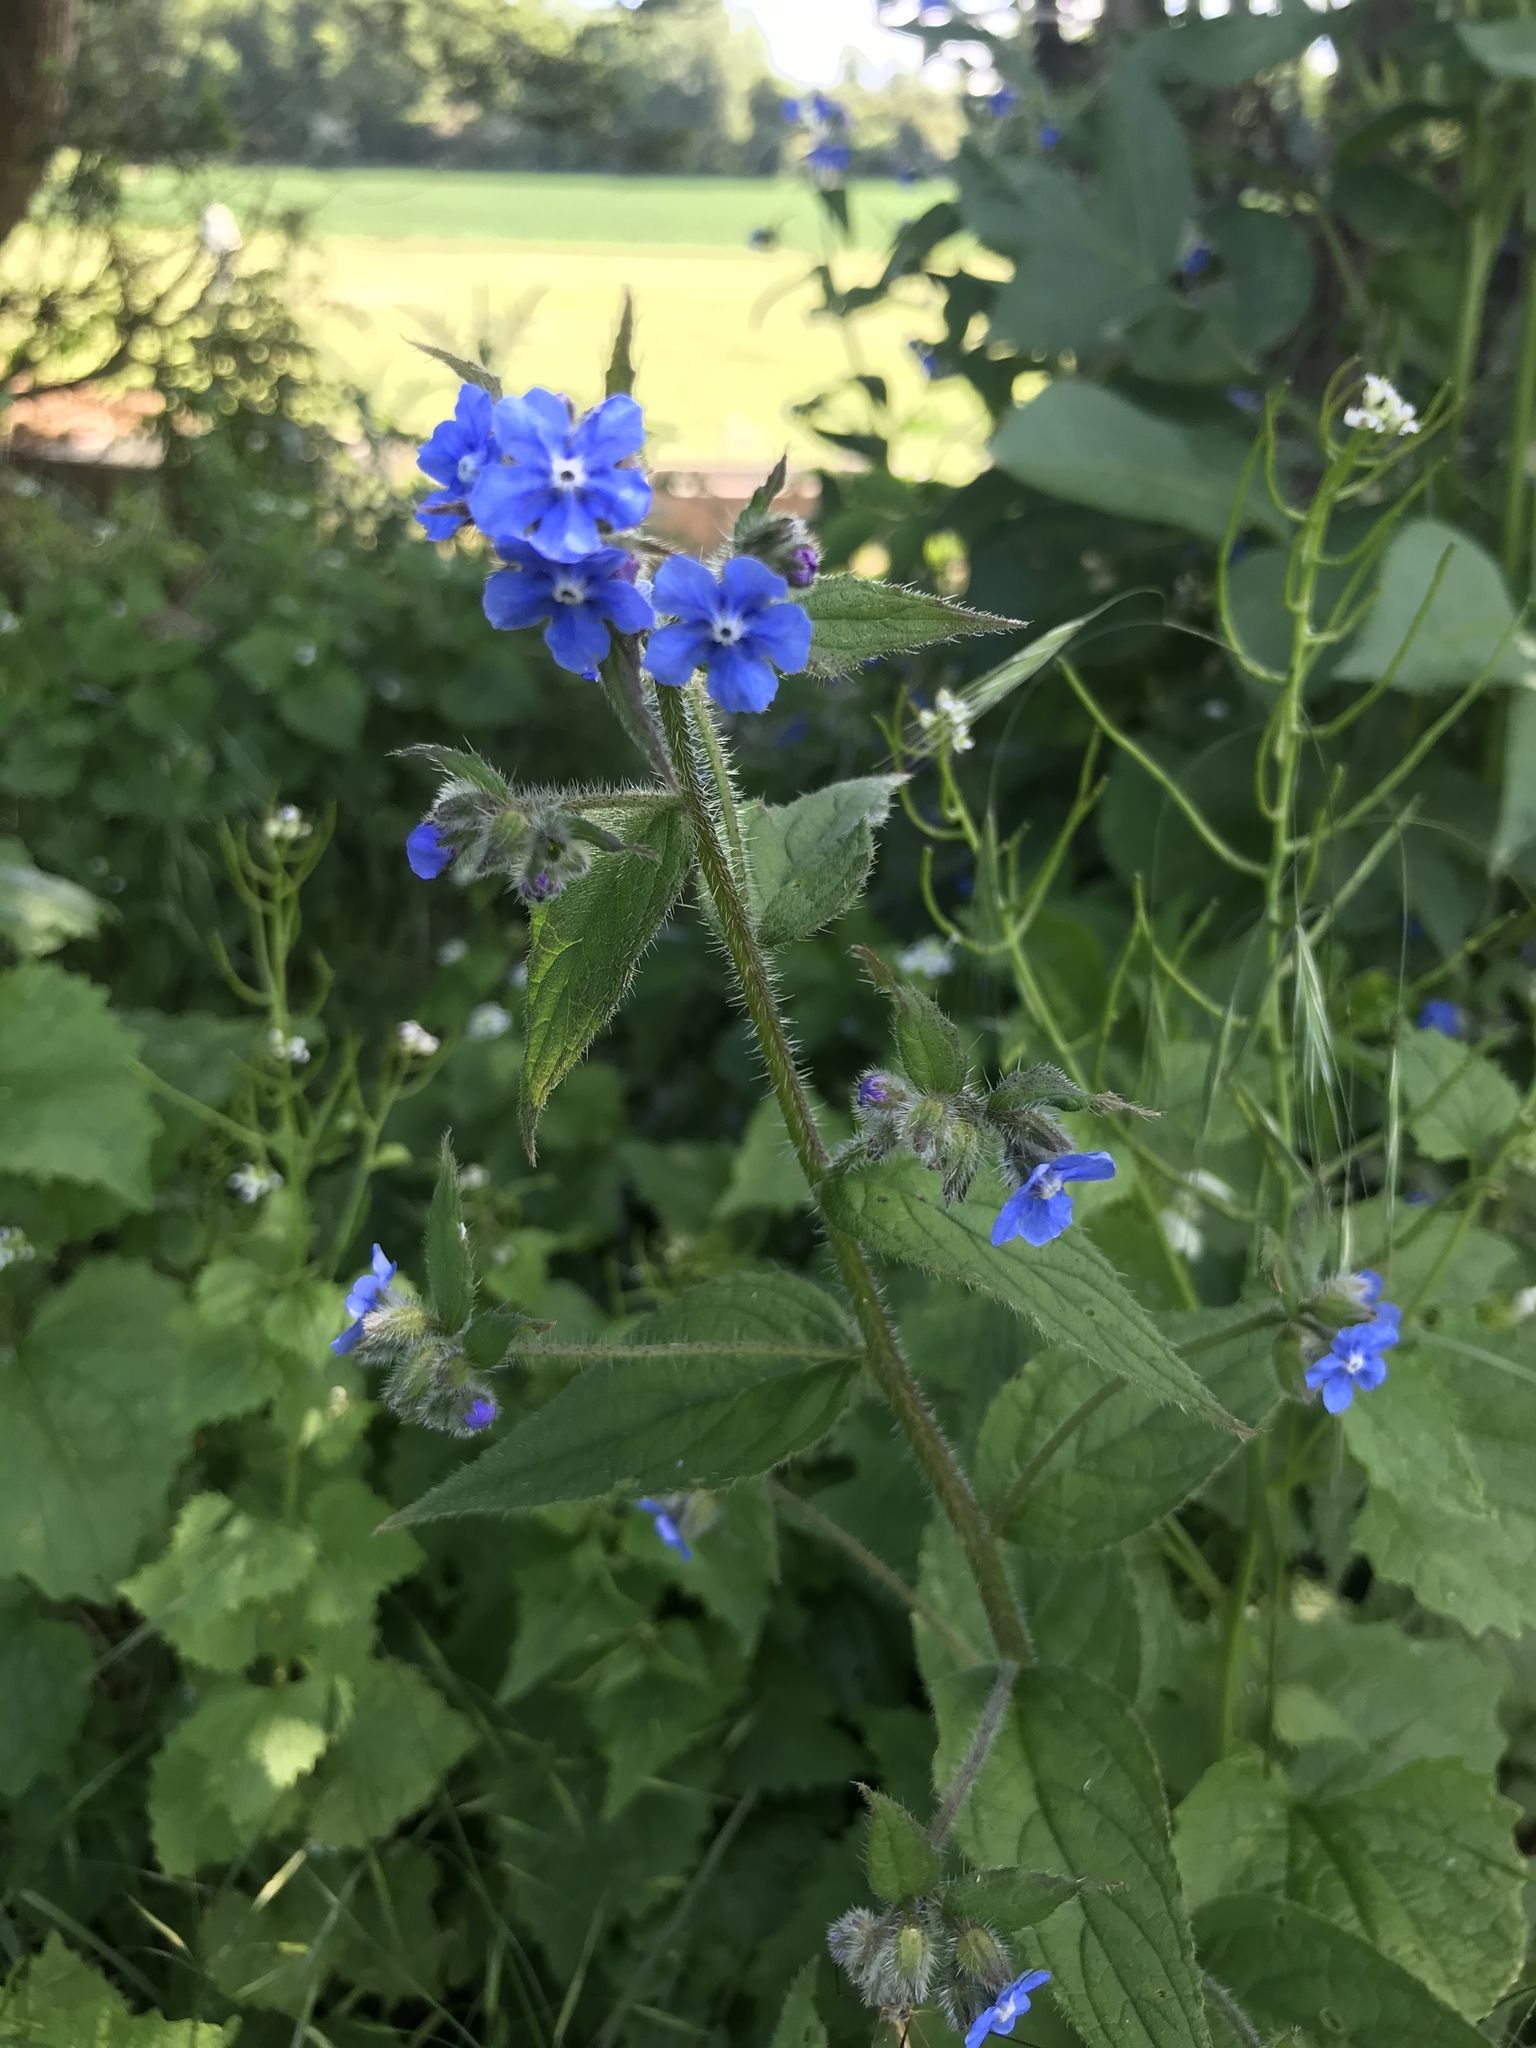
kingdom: Plantae
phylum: Tracheophyta
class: Magnoliopsida
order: Boraginales
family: Boraginaceae
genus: Pentaglottis
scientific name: Pentaglottis sempervirens
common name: Green alkanet
